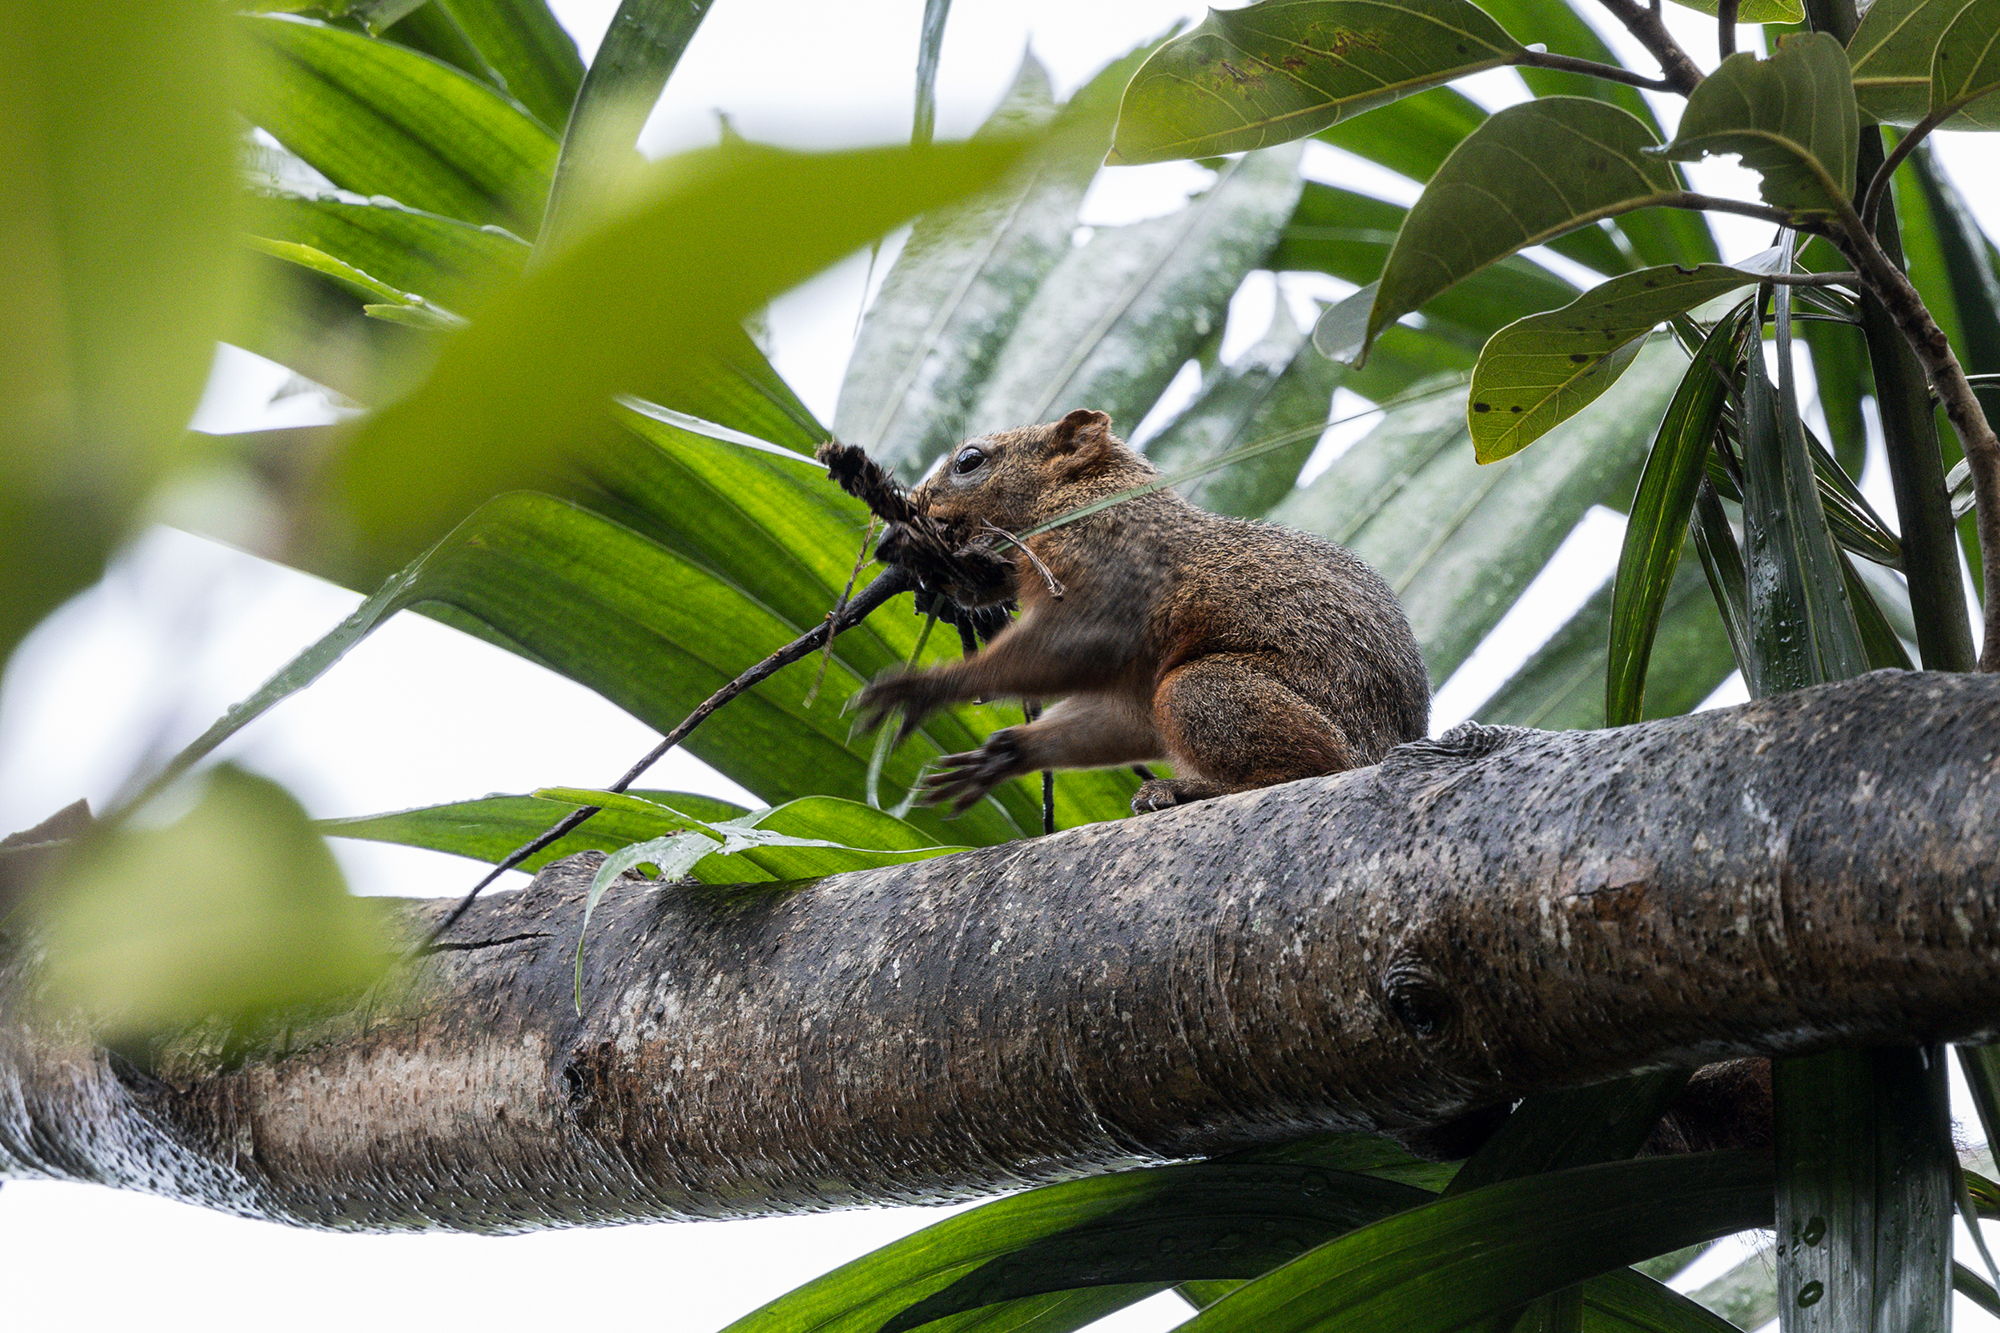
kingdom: Animalia
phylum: Chordata
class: Mammalia
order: Rodentia
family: Sciuridae
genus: Callosciurus
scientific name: Callosciurus finlaysonii
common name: Finlayson's squirrel
